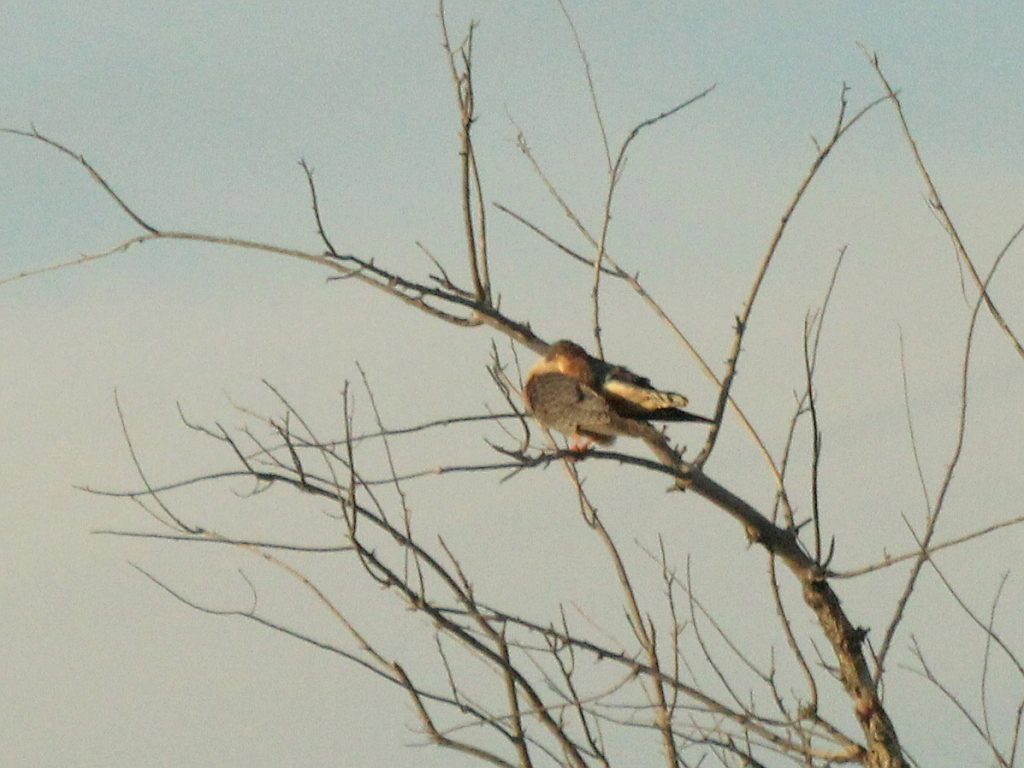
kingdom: Animalia
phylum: Chordata
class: Aves
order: Falconiformes
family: Falconidae
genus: Falco
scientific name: Falco vespertinus
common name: Red-footed falcon
